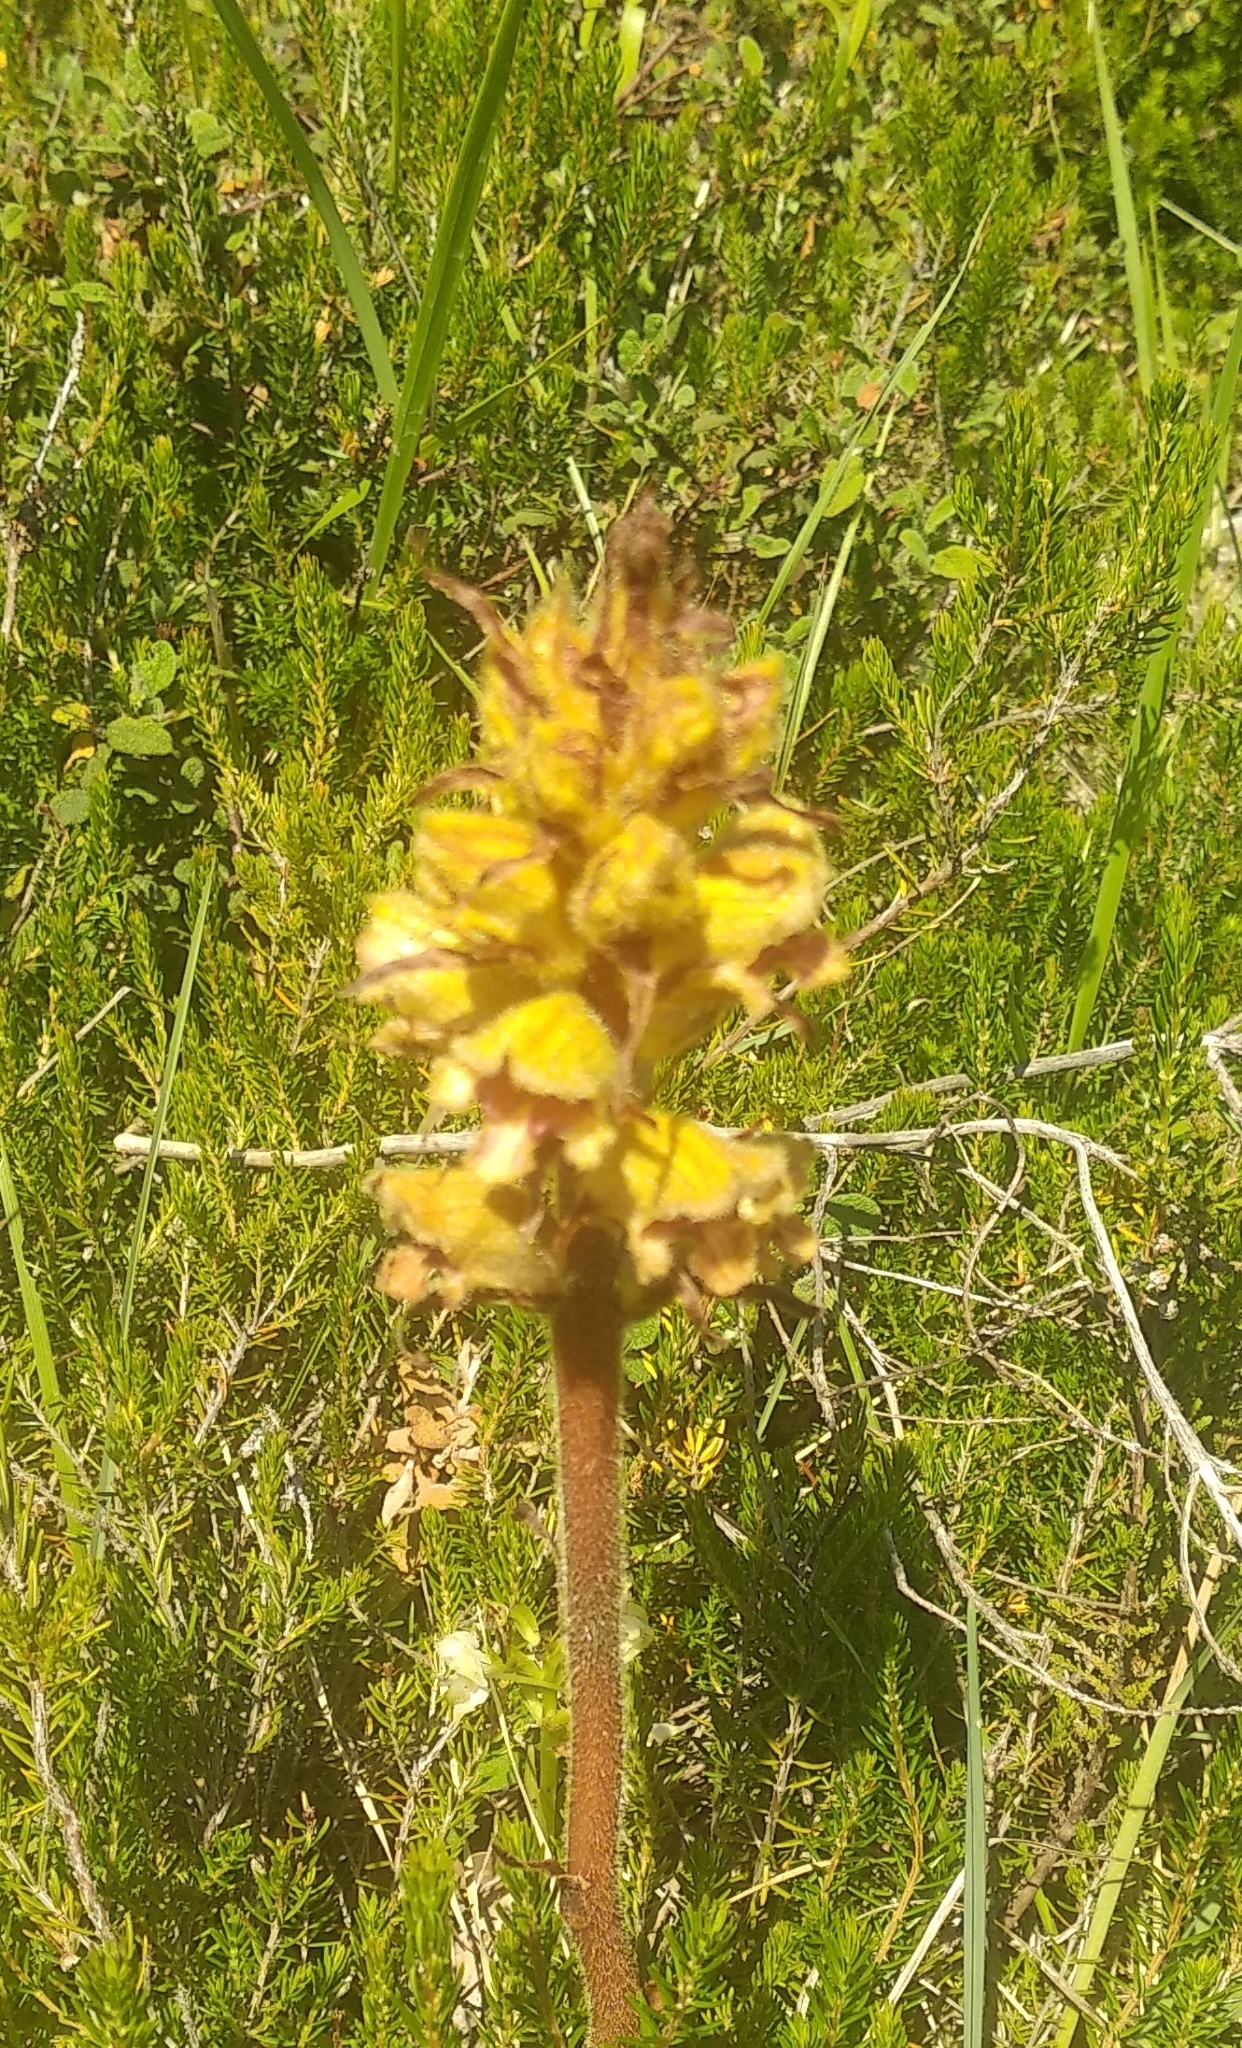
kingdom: Plantae
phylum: Tracheophyta
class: Magnoliopsida
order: Lamiales
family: Orobanchaceae
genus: Orobanche
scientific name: Orobanche gracilis
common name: Slender broomrape
